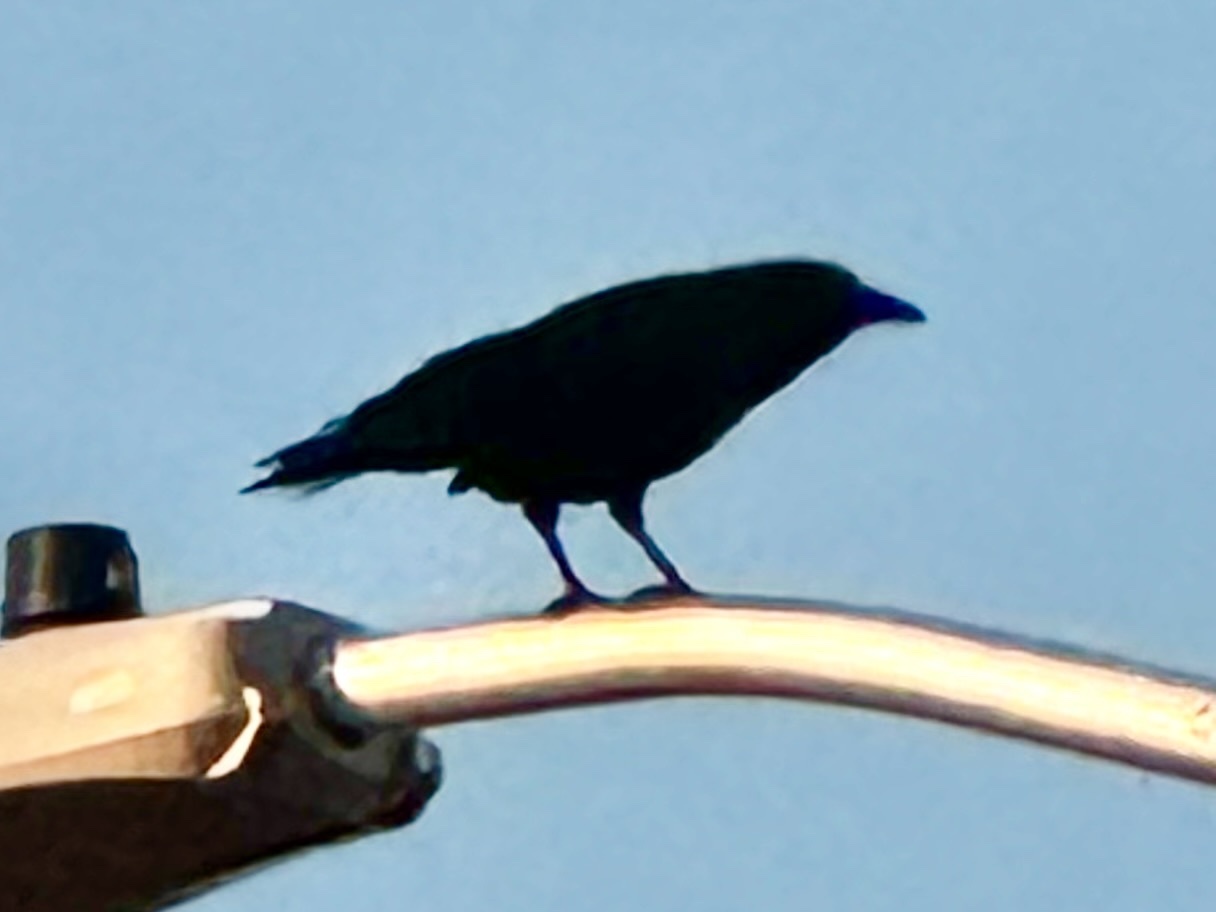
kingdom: Animalia
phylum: Chordata
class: Aves
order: Passeriformes
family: Corvidae
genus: Corvus
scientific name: Corvus brachyrhynchos
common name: American crow
